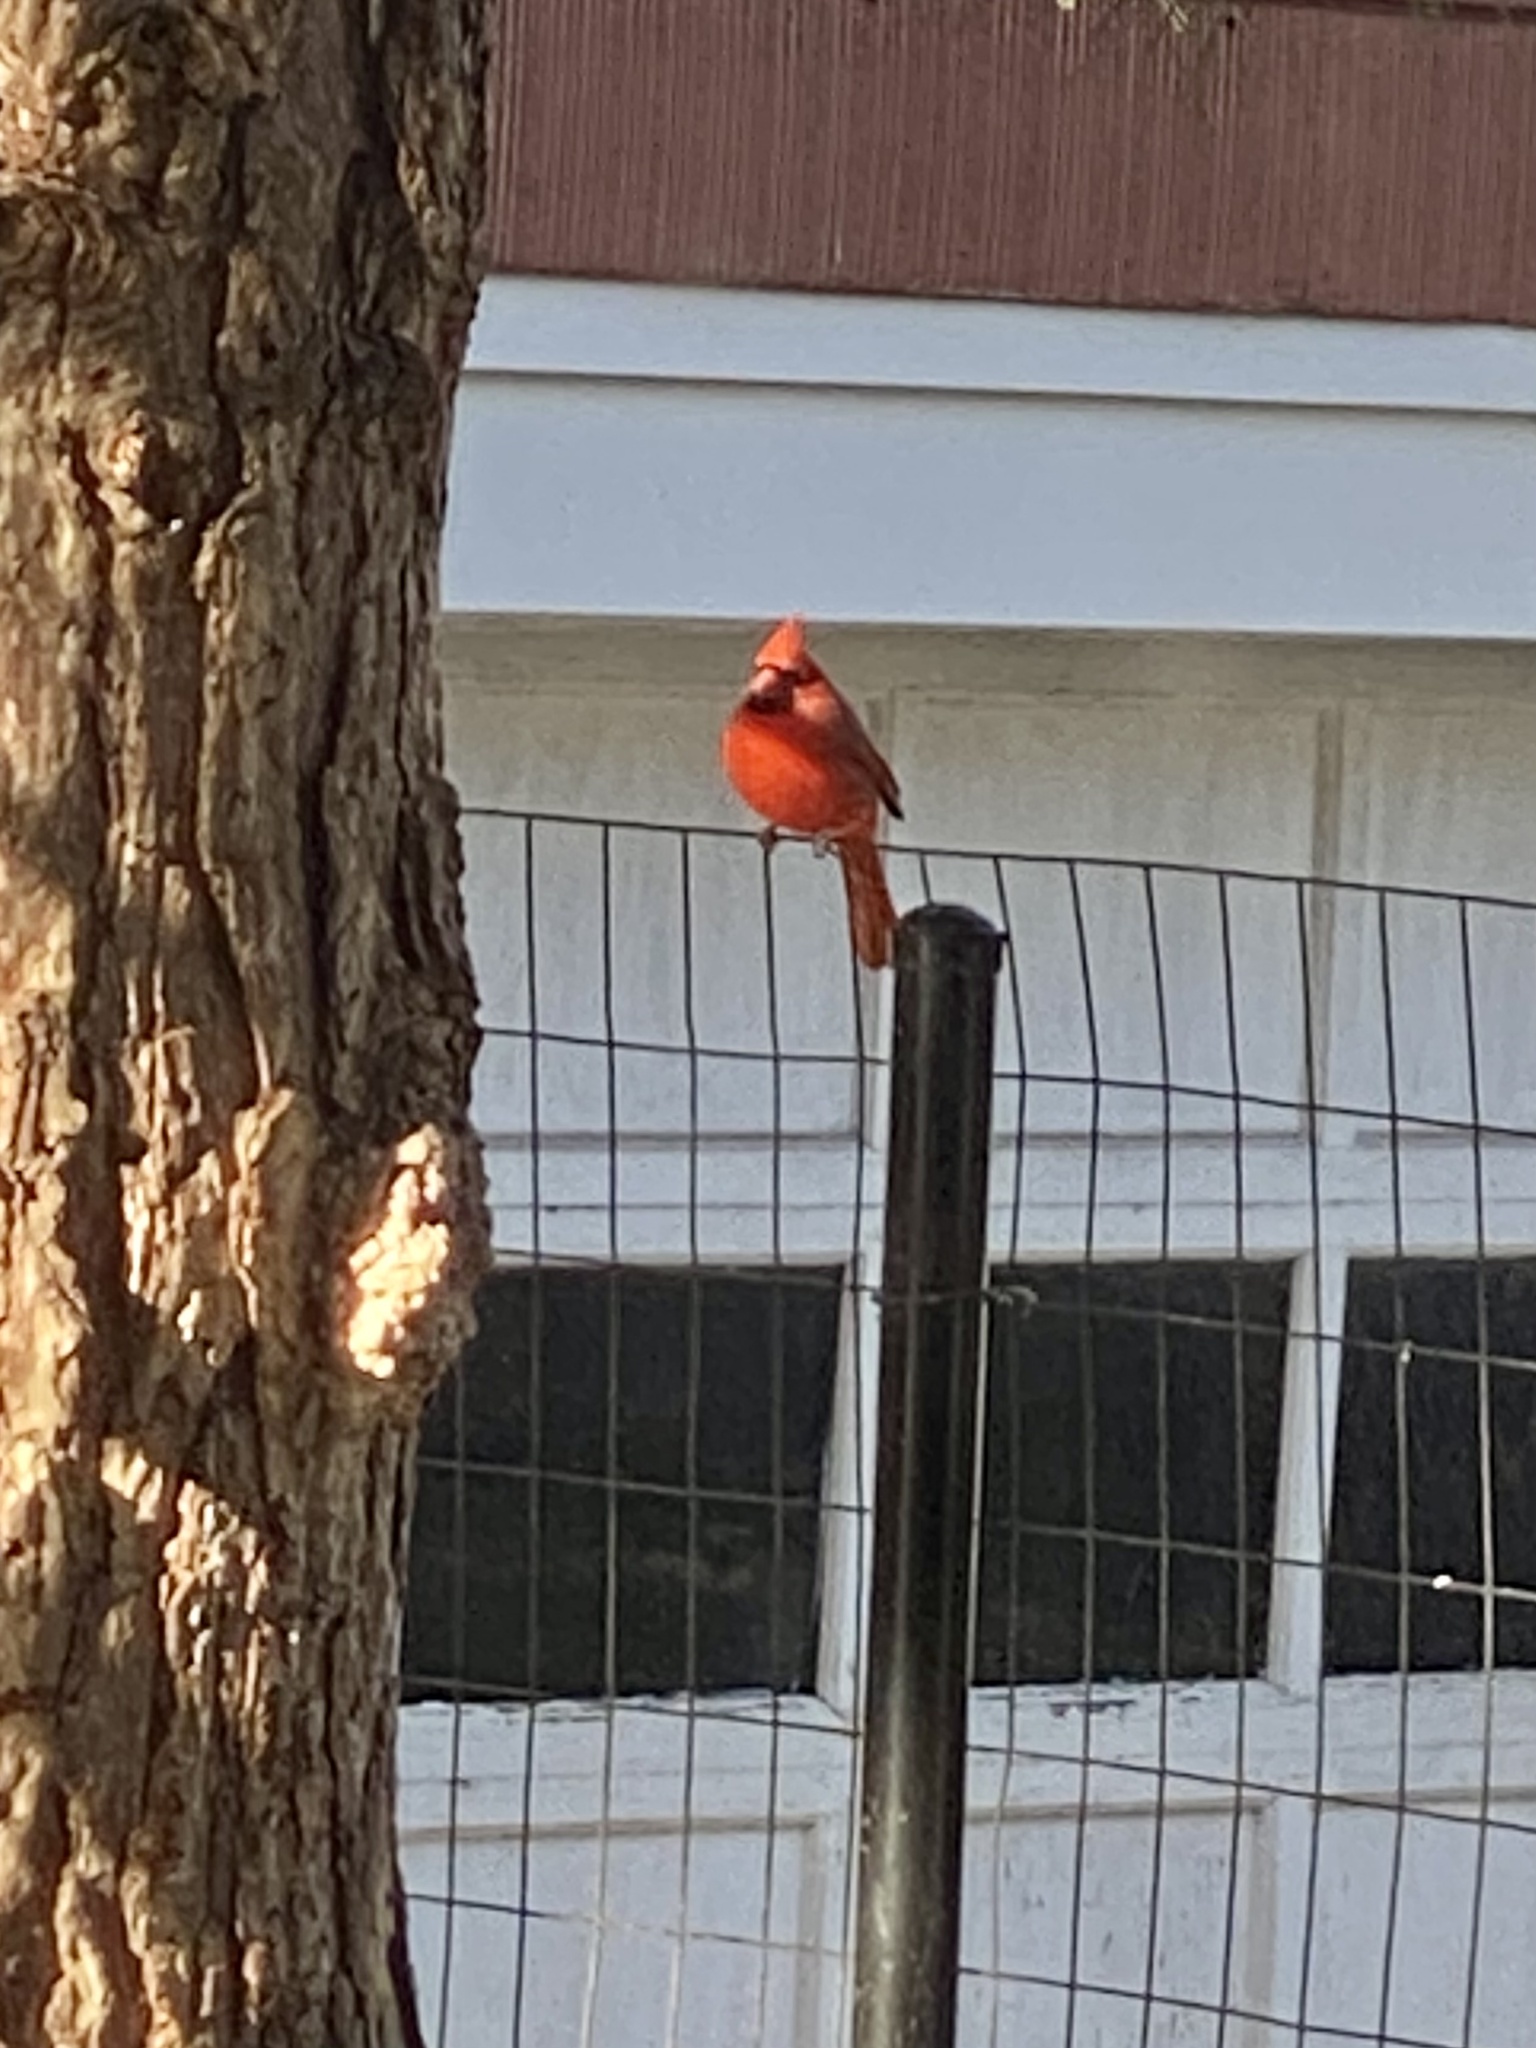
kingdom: Animalia
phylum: Chordata
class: Aves
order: Passeriformes
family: Cardinalidae
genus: Cardinalis
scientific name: Cardinalis cardinalis
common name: Northern cardinal
